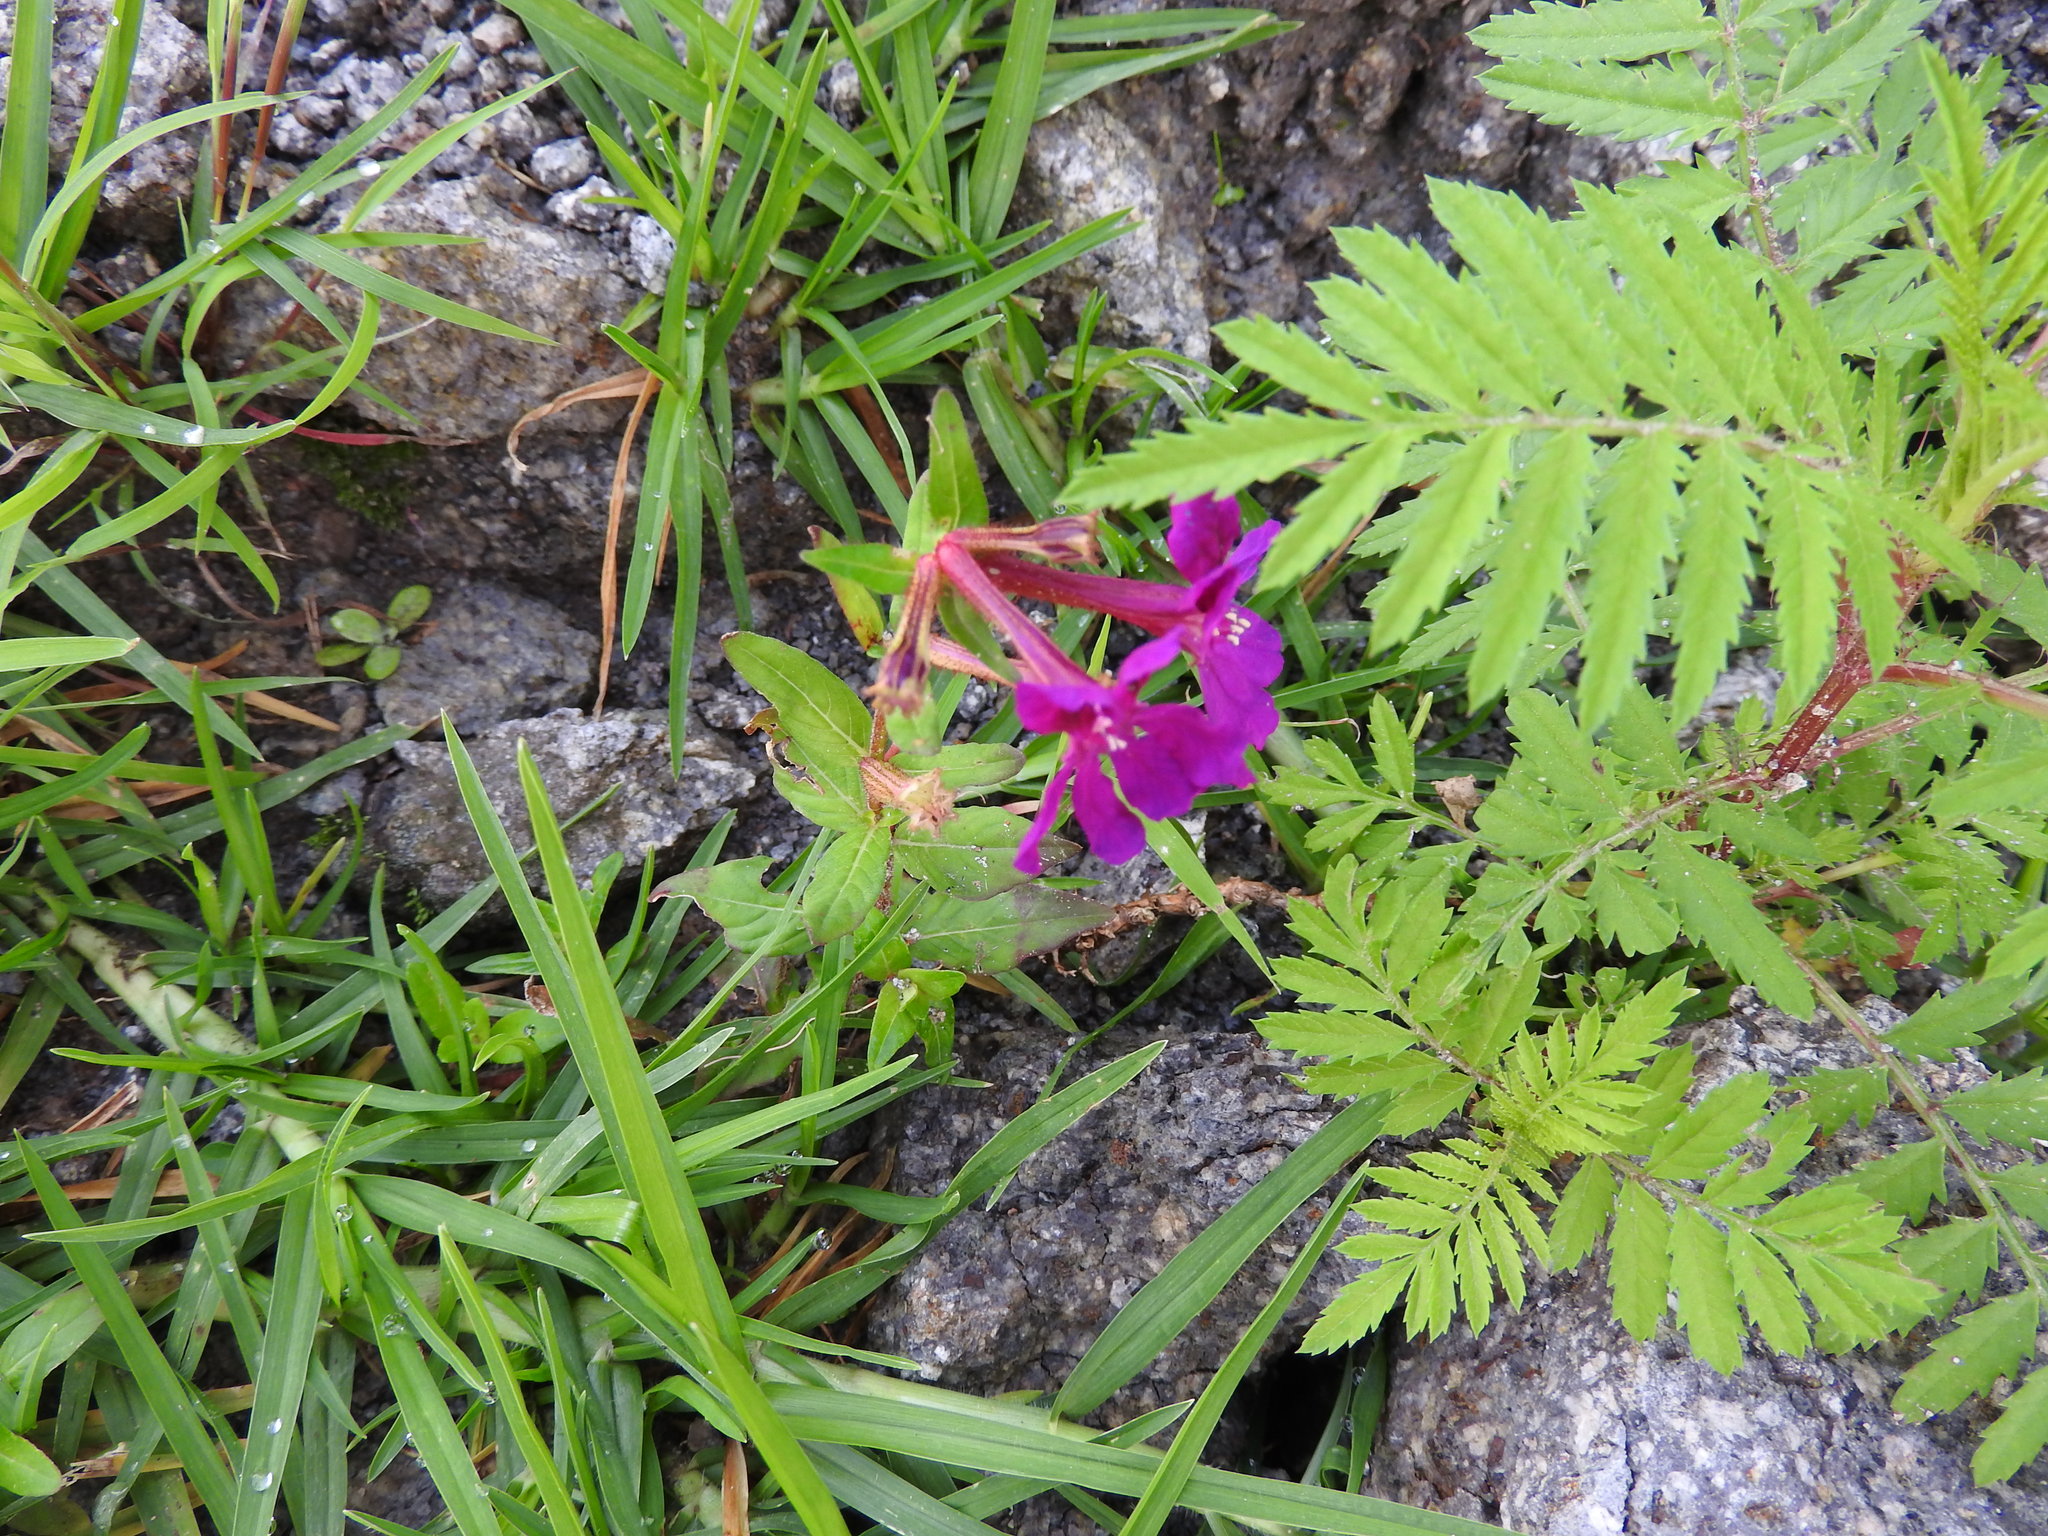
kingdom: Plantae
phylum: Tracheophyta
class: Magnoliopsida
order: Myrtales
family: Lythraceae
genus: Cuphea
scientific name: Cuphea aequipetala
